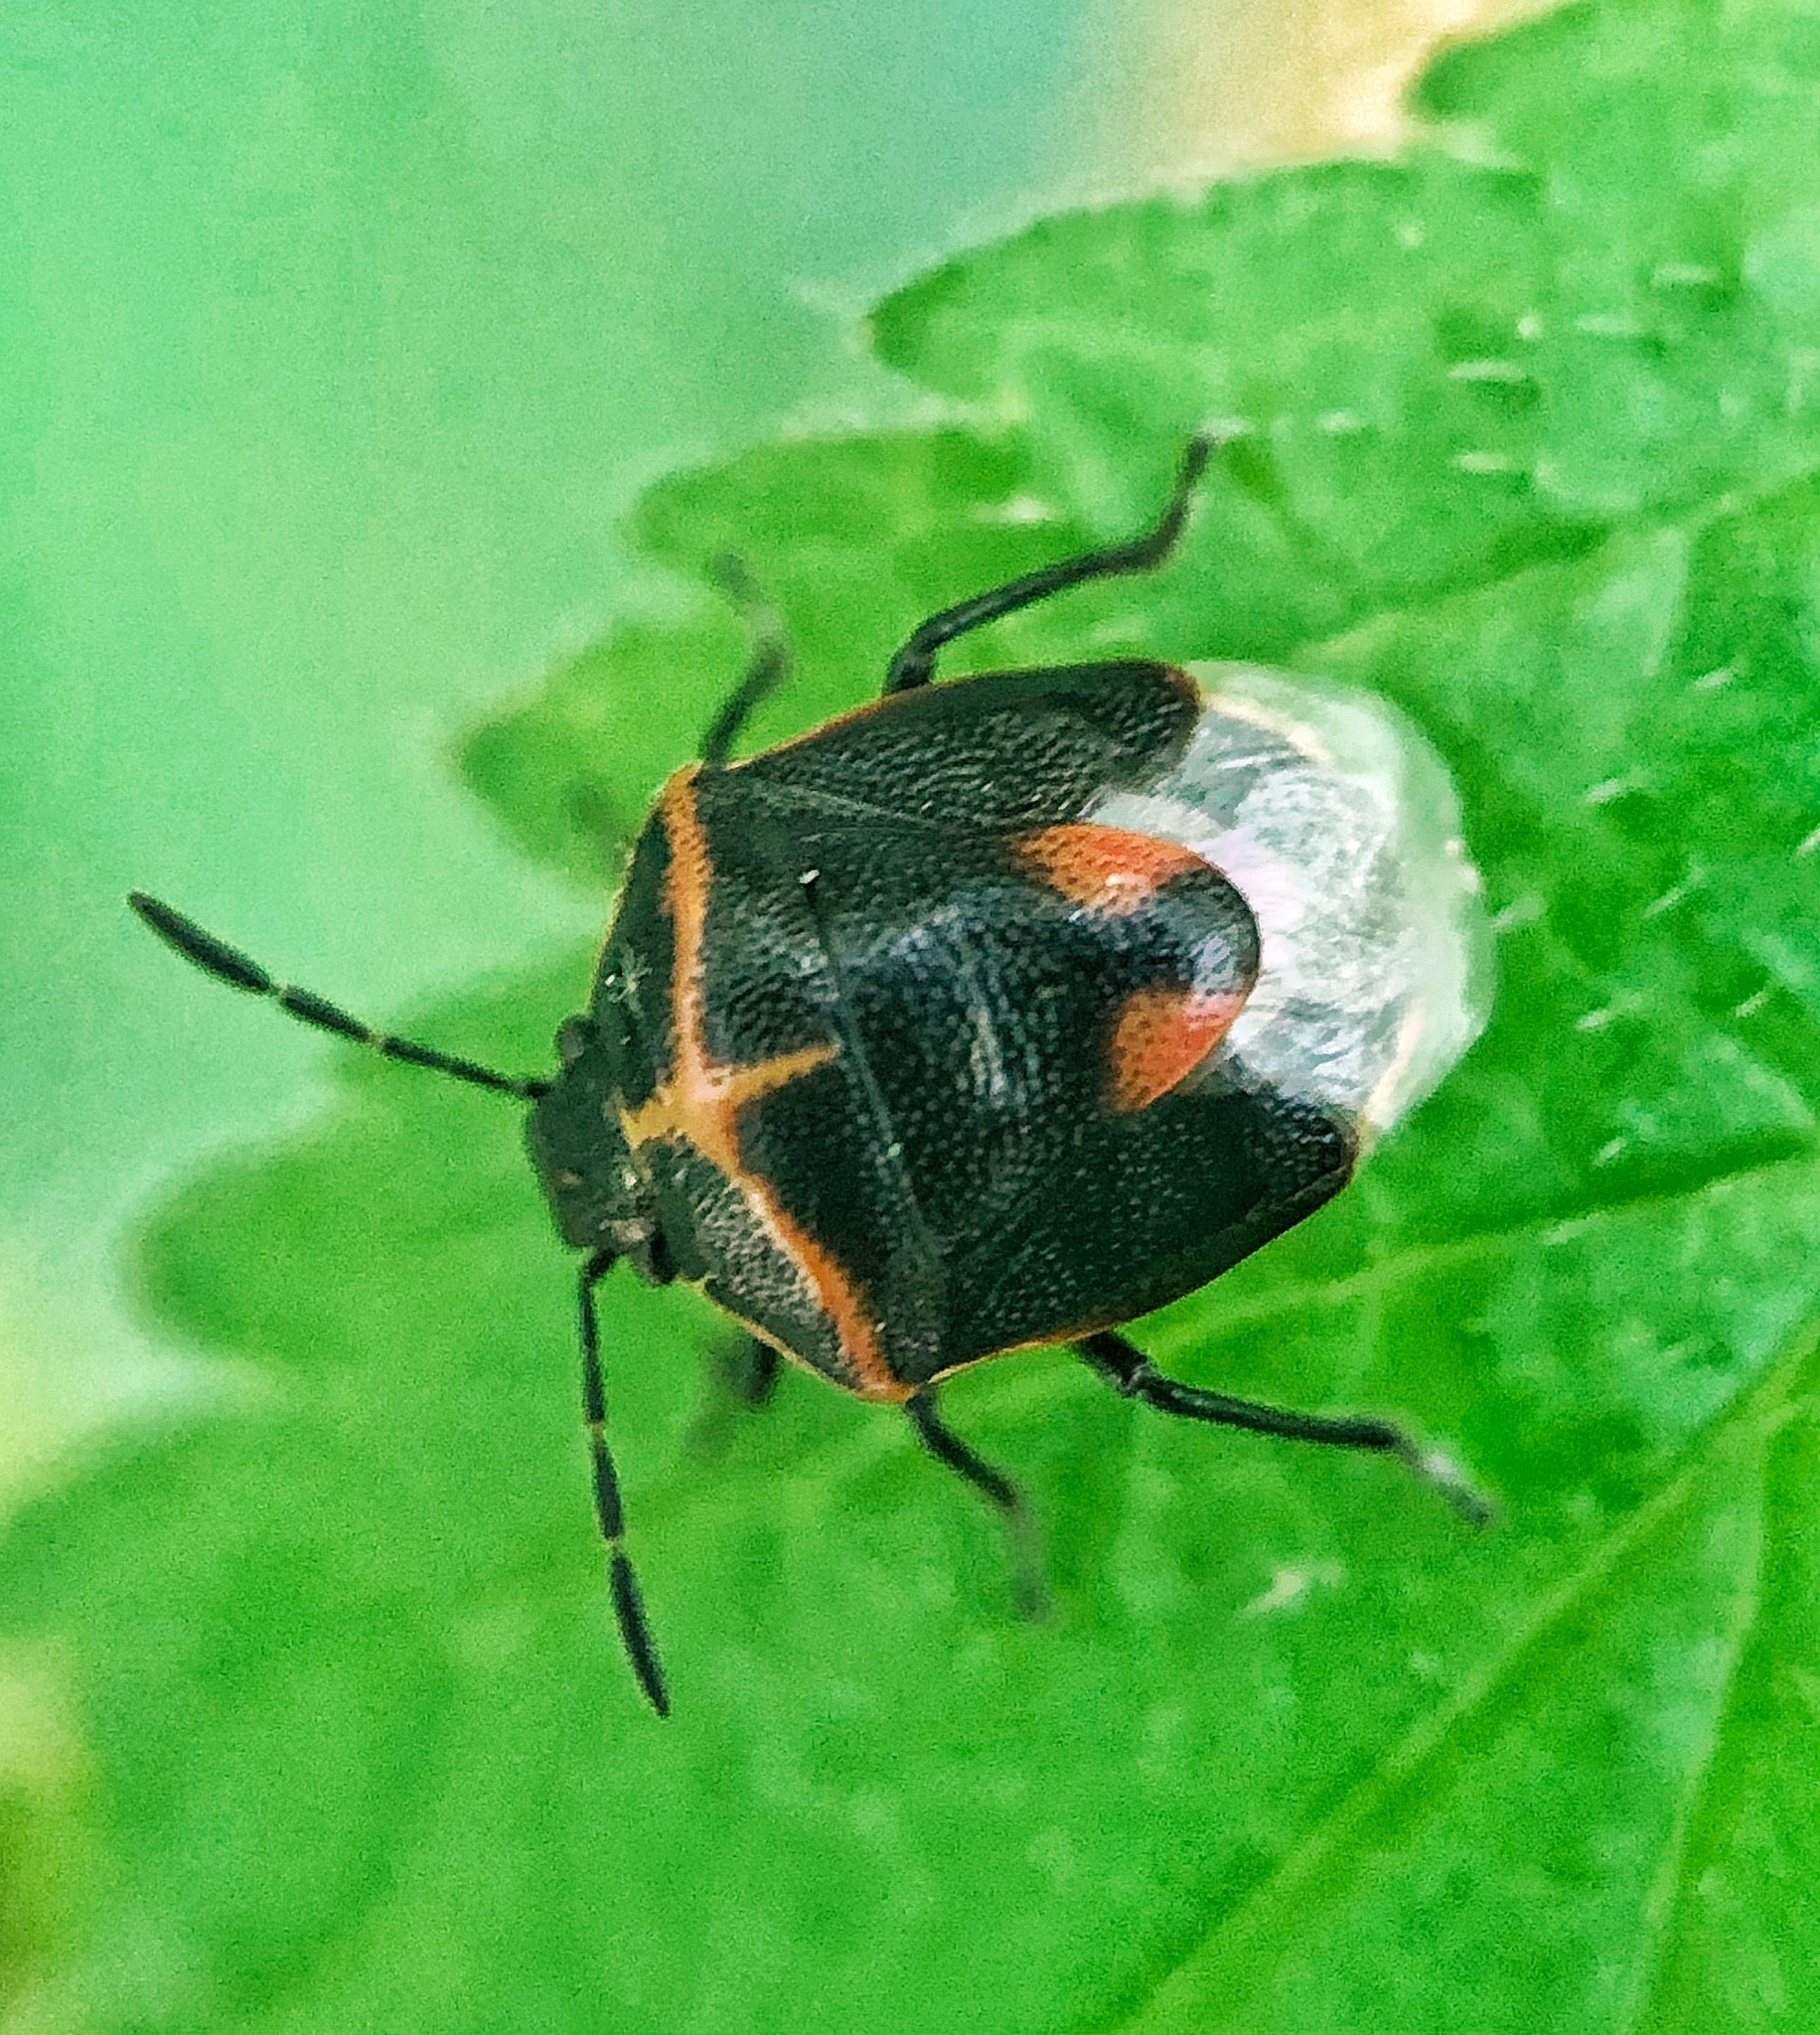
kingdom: Animalia
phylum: Arthropoda
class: Insecta
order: Hemiptera
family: Pentatomidae
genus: Cosmopepla
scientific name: Cosmopepla lintneriana
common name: Twice-stabbed stink bug
